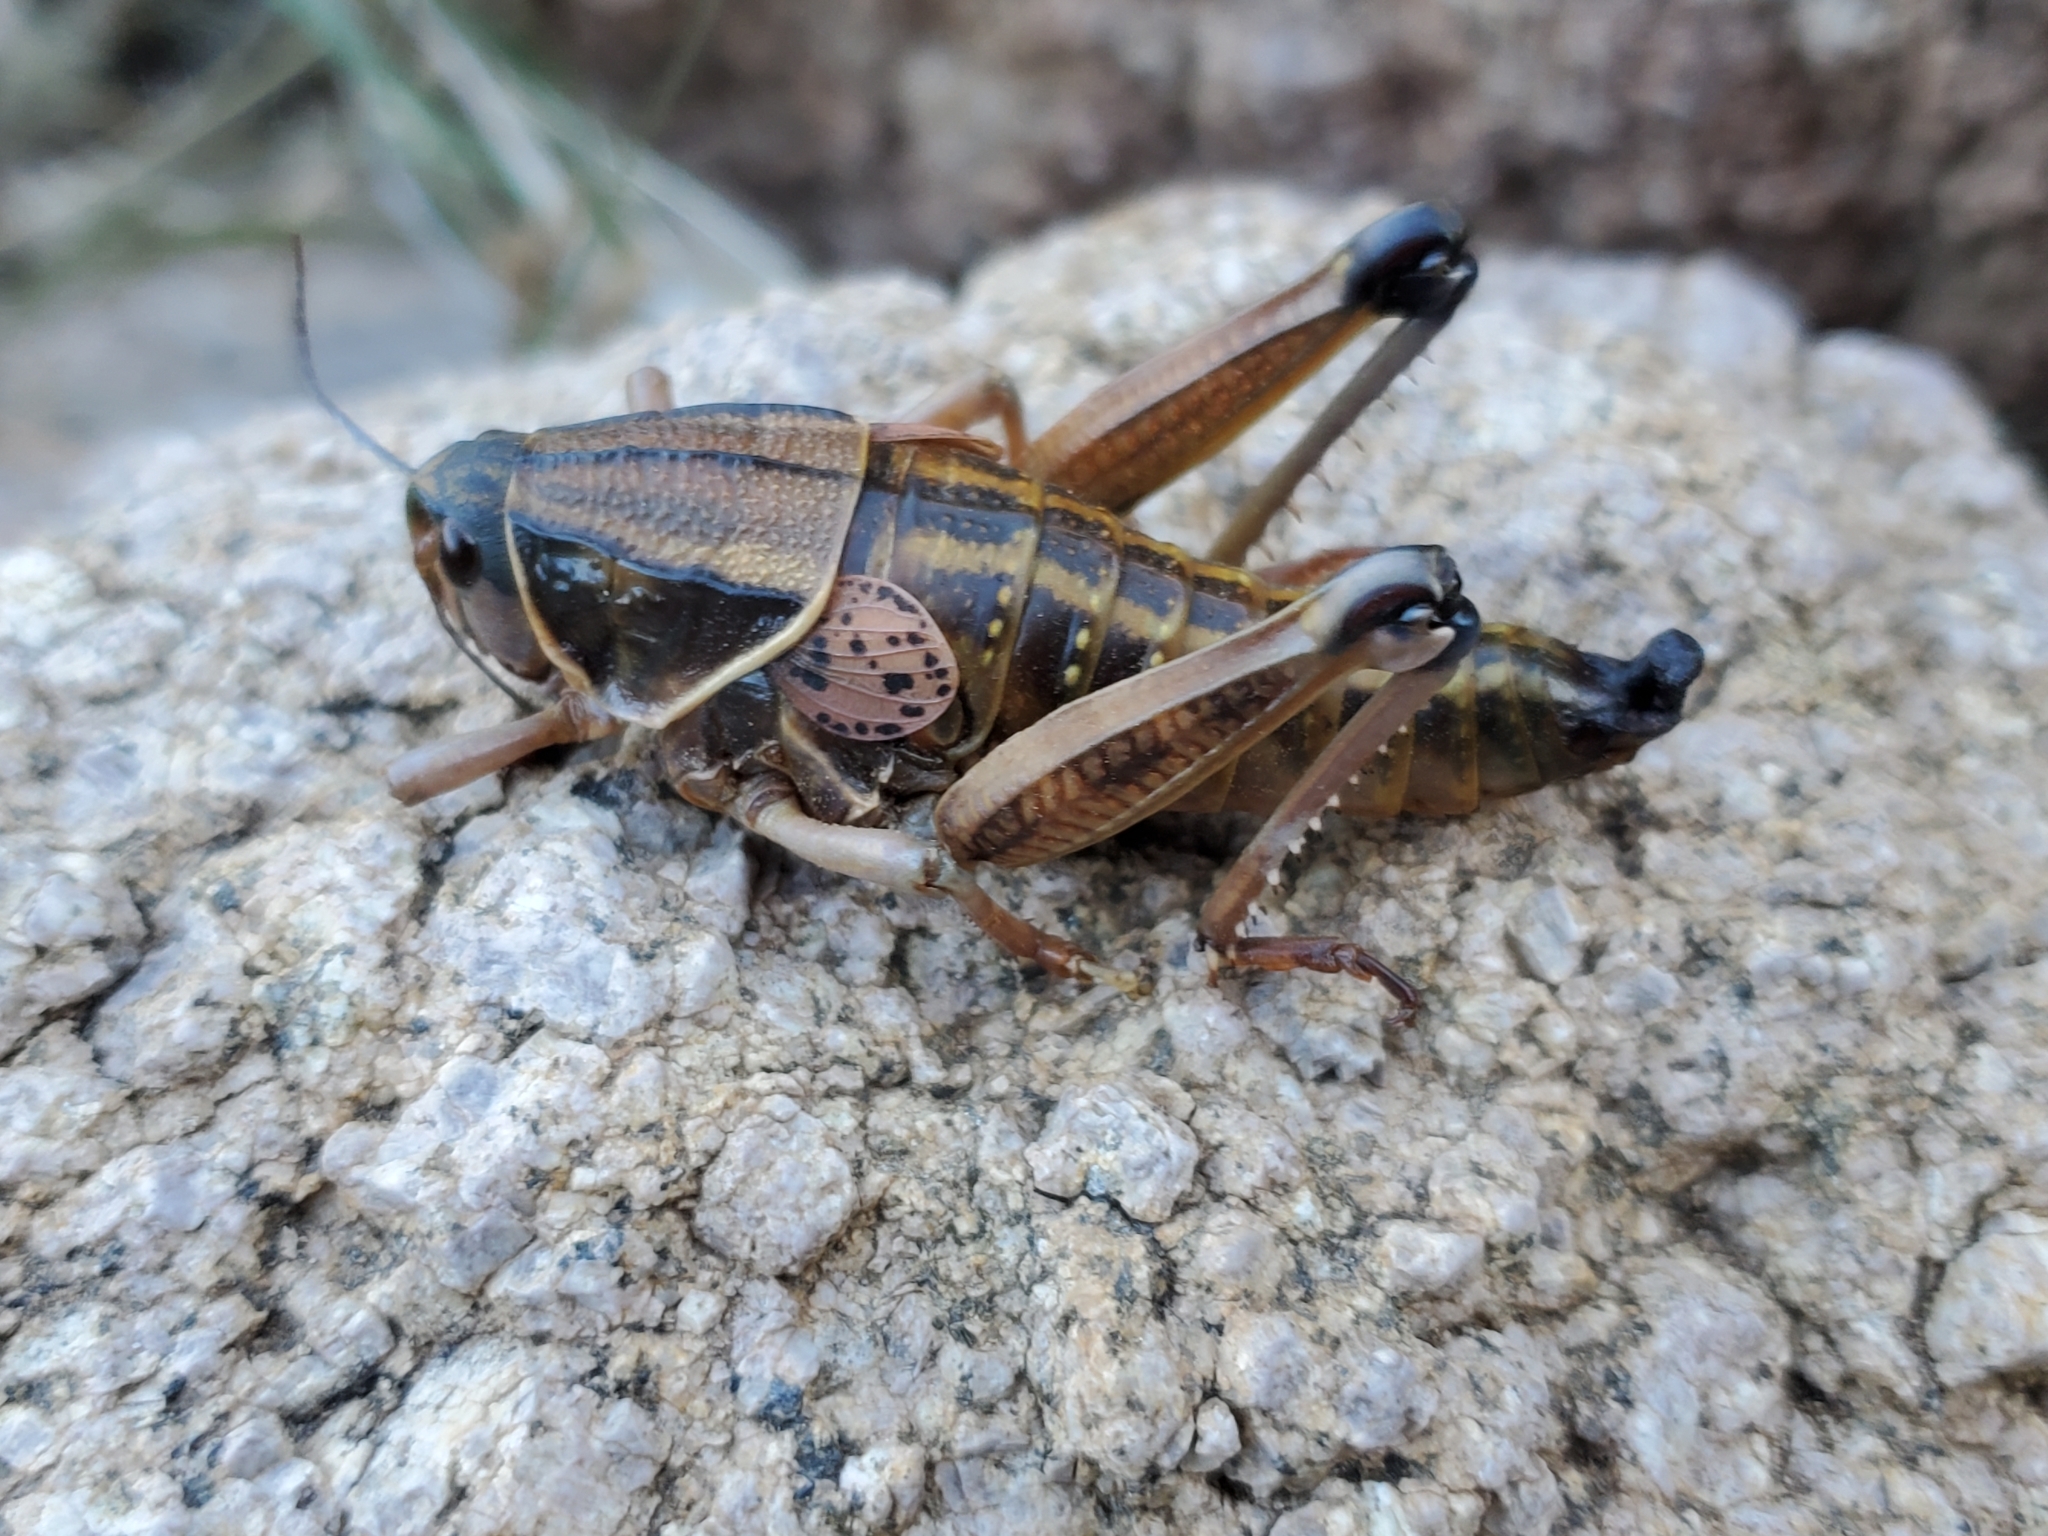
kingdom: Animalia
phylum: Arthropoda
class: Insecta
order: Orthoptera
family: Romaleidae
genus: Brachystola
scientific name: Brachystola magna
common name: Plains lubber grasshopper
